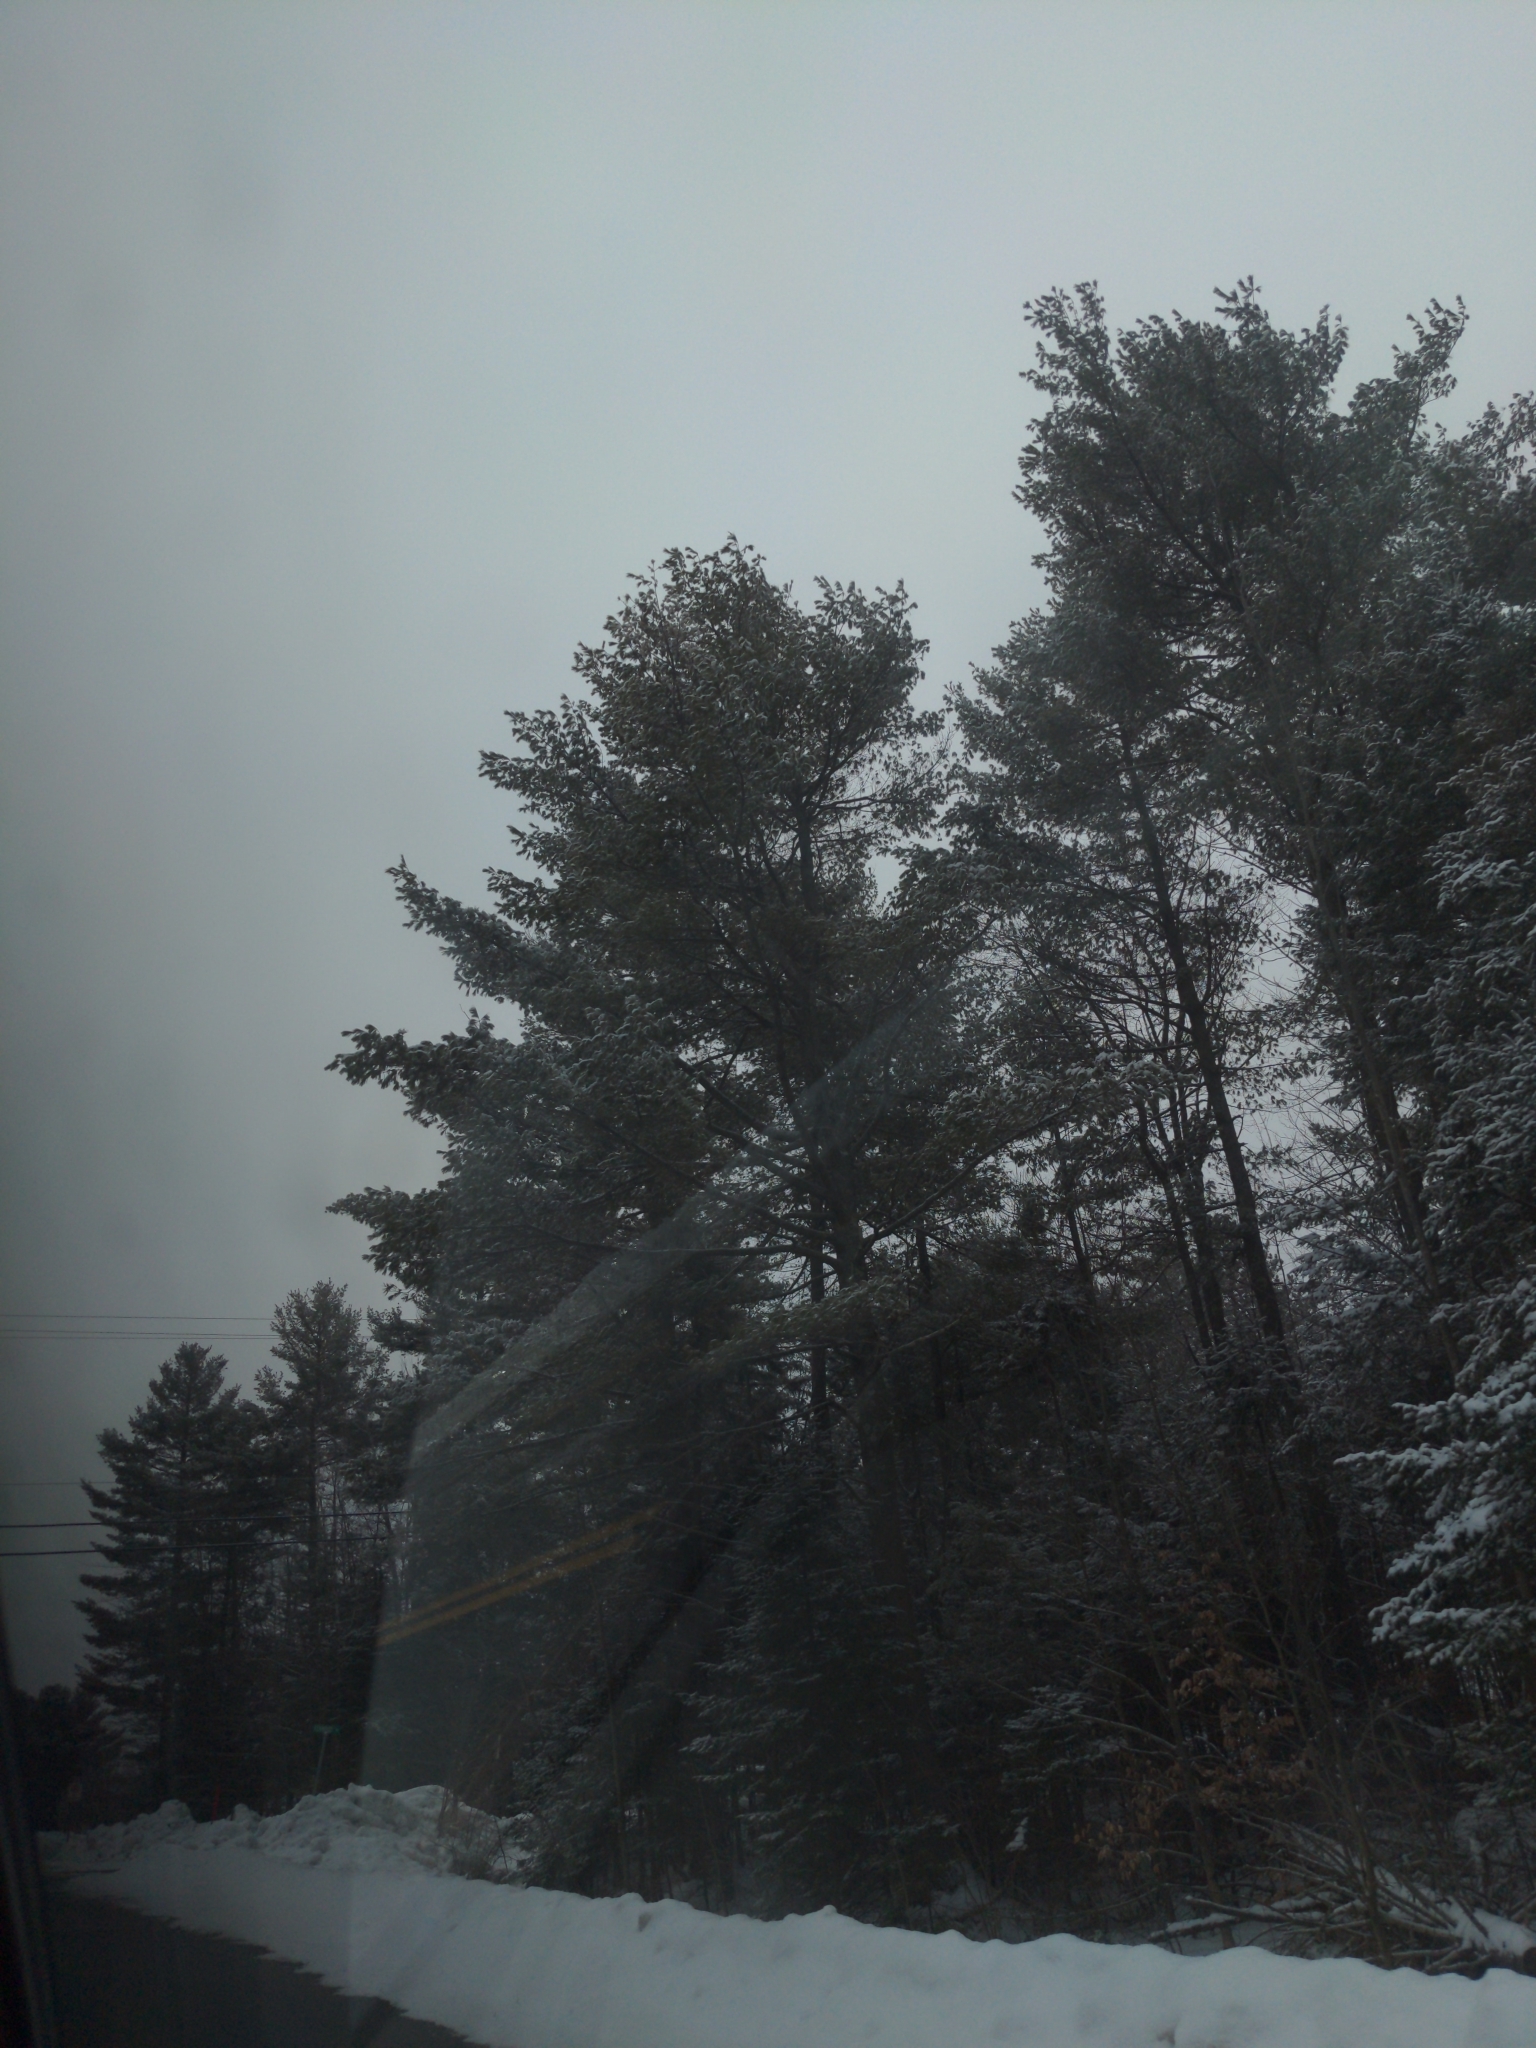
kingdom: Plantae
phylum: Tracheophyta
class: Pinopsida
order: Pinales
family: Pinaceae
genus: Pinus
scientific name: Pinus strobus
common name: Weymouth pine
